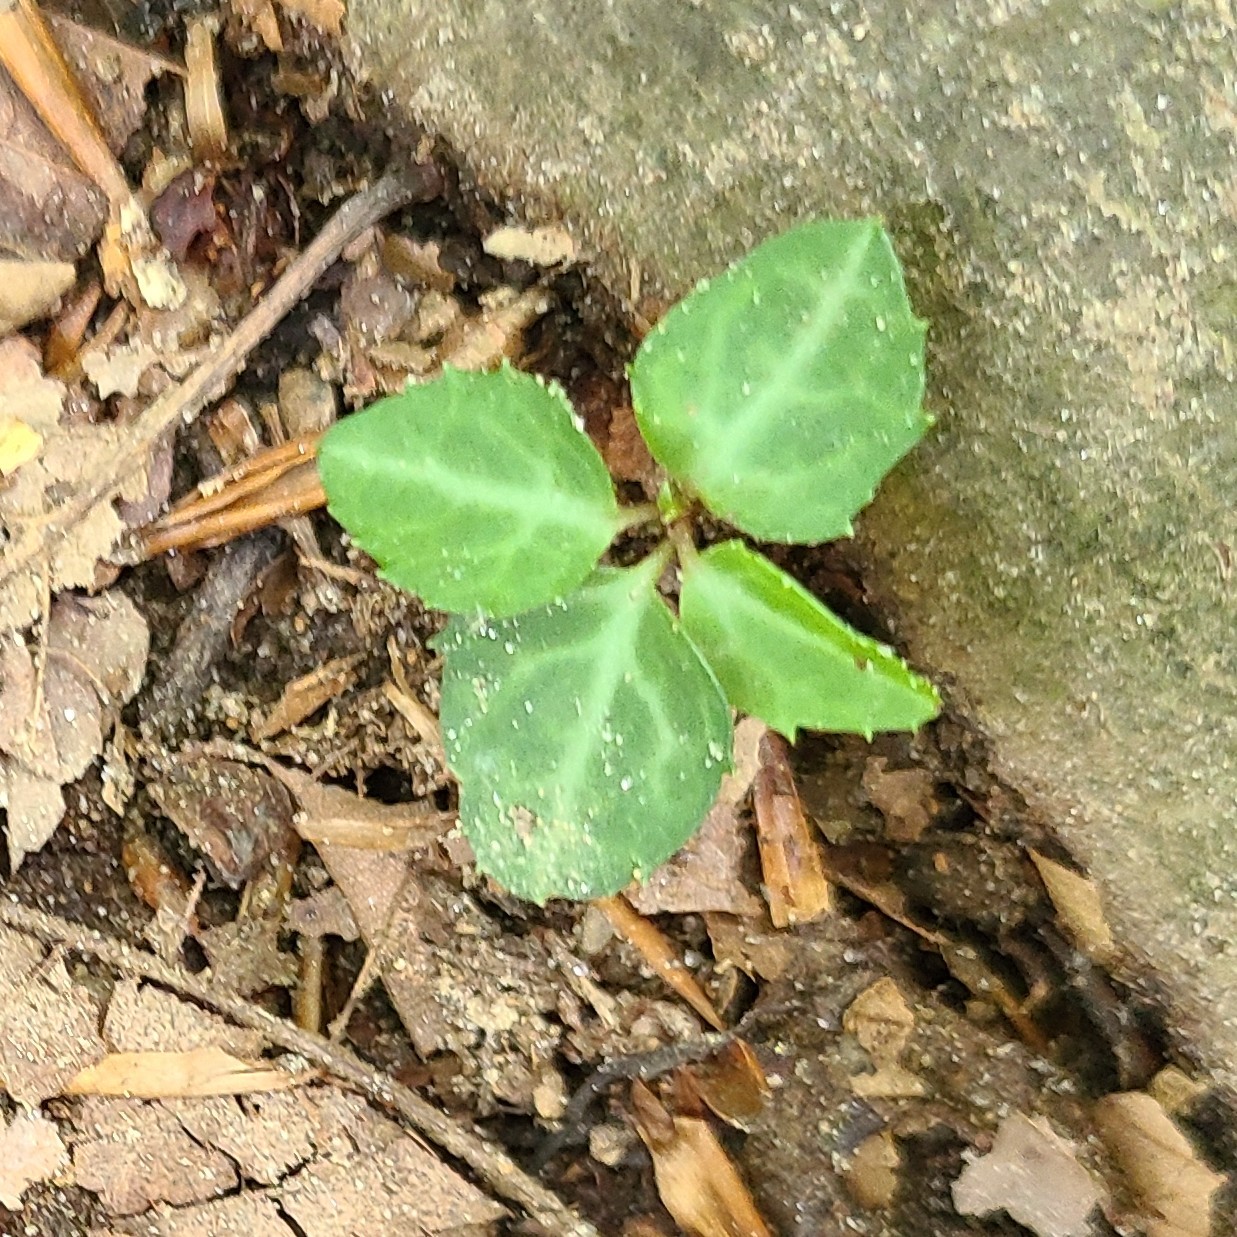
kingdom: Plantae
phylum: Tracheophyta
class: Magnoliopsida
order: Ericales
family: Ericaceae
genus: Chimaphila
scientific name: Chimaphila maculata
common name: Spotted pipsissewa
